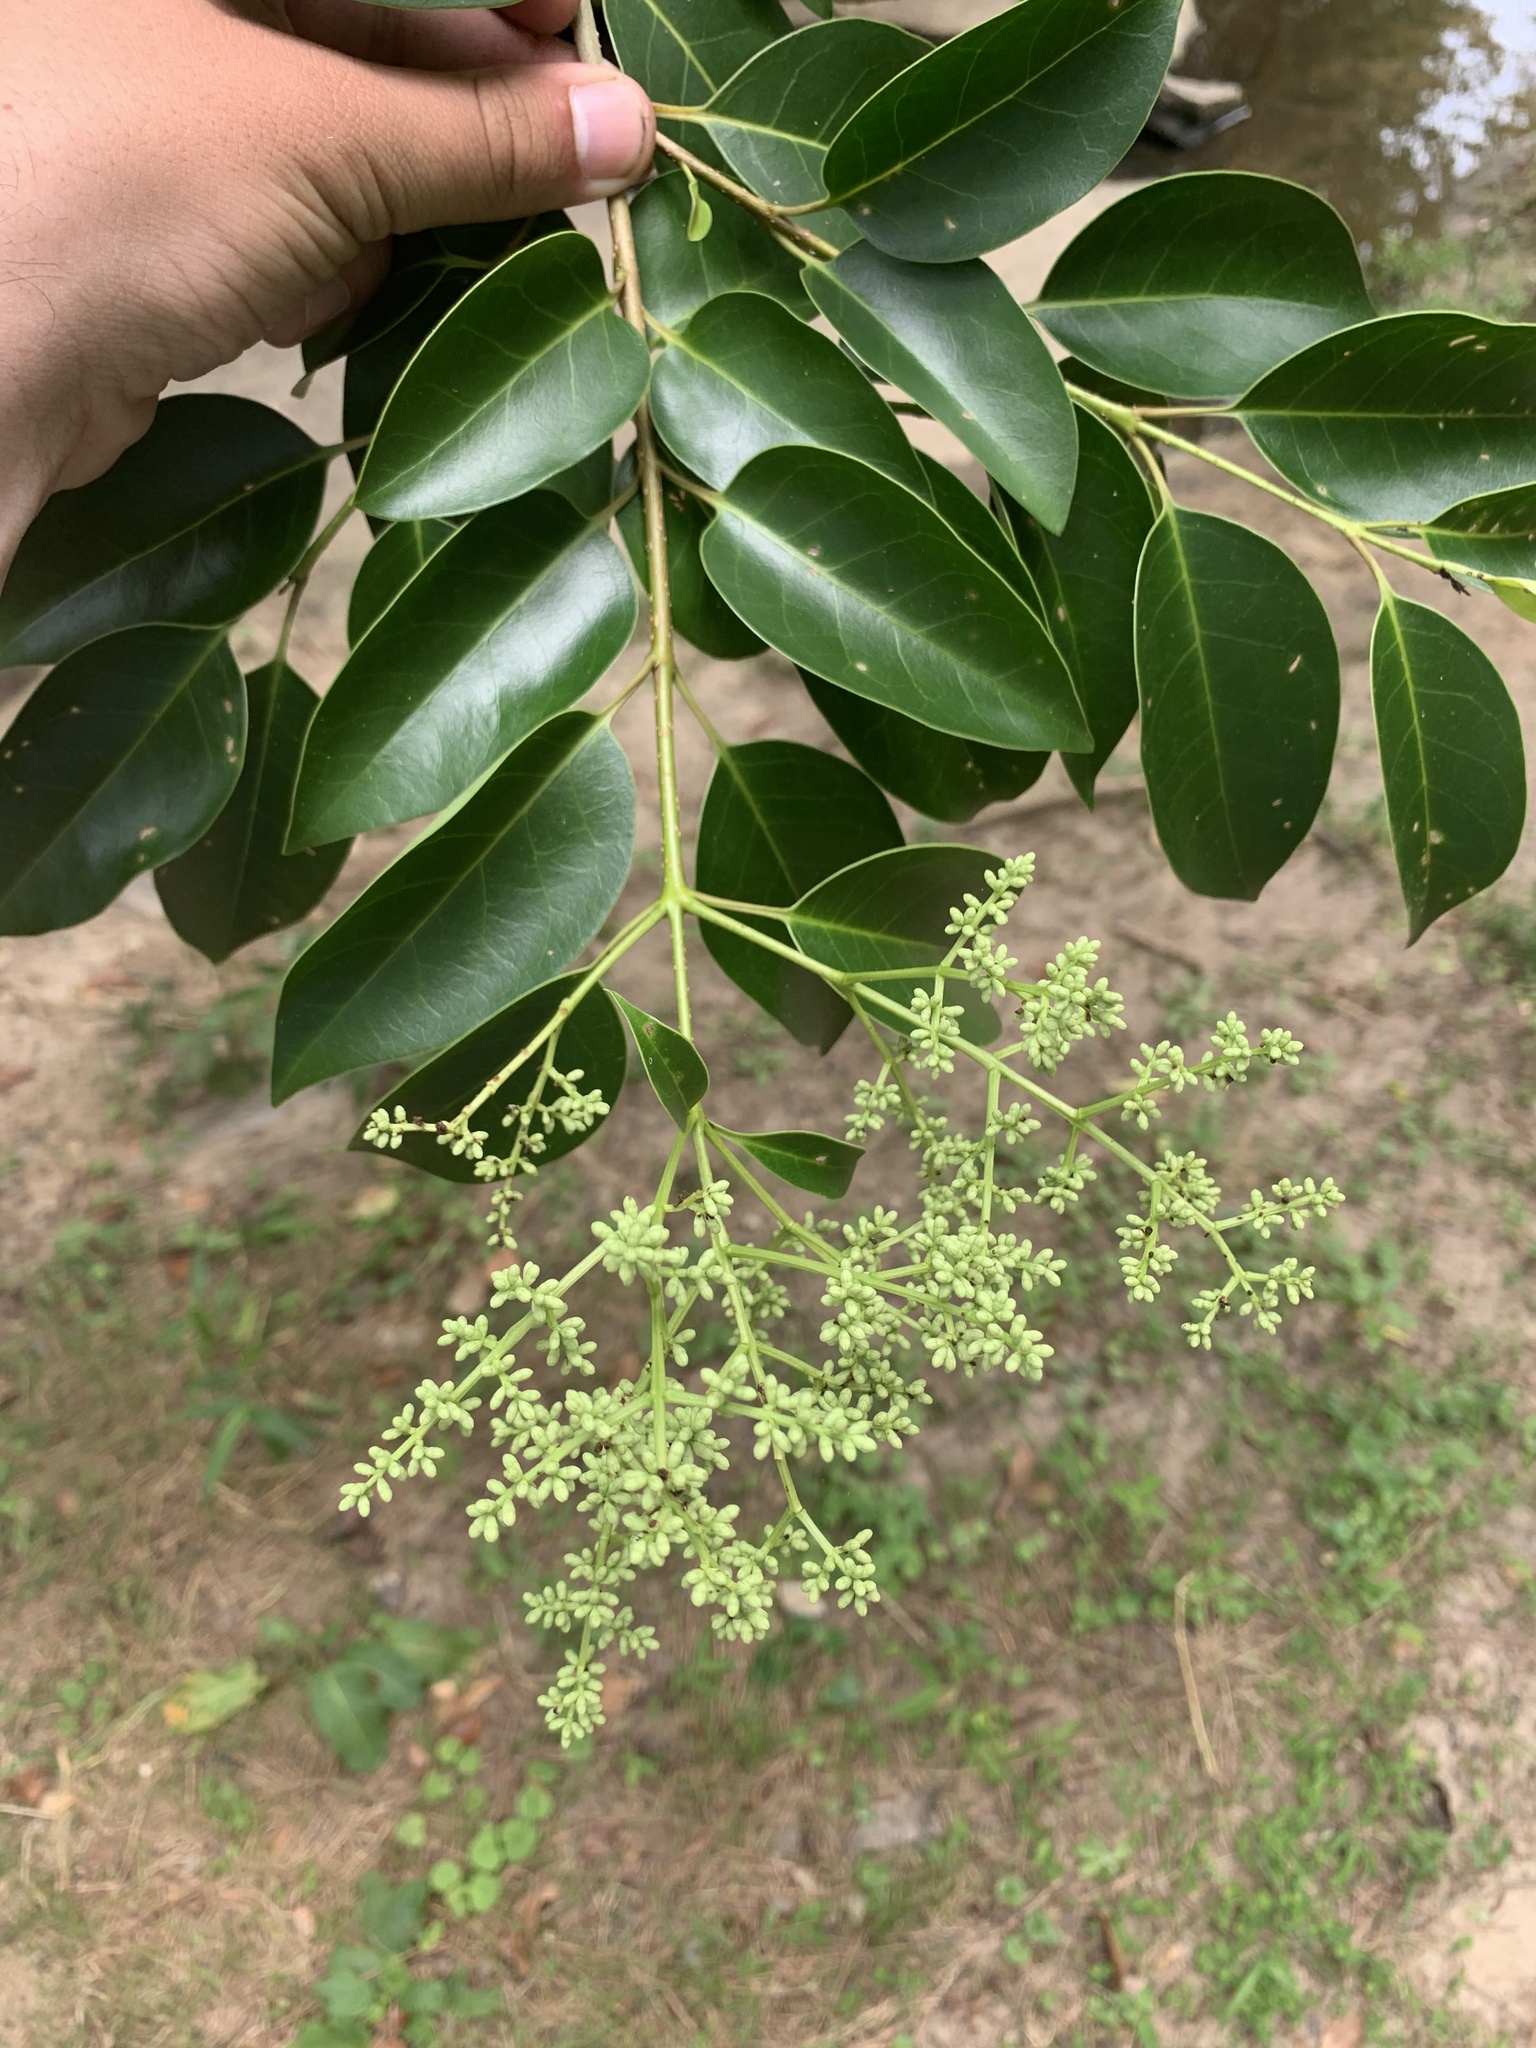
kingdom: Plantae
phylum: Tracheophyta
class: Magnoliopsida
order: Lamiales
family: Oleaceae
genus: Ligustrum
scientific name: Ligustrum lucidum
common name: Glossy privet
